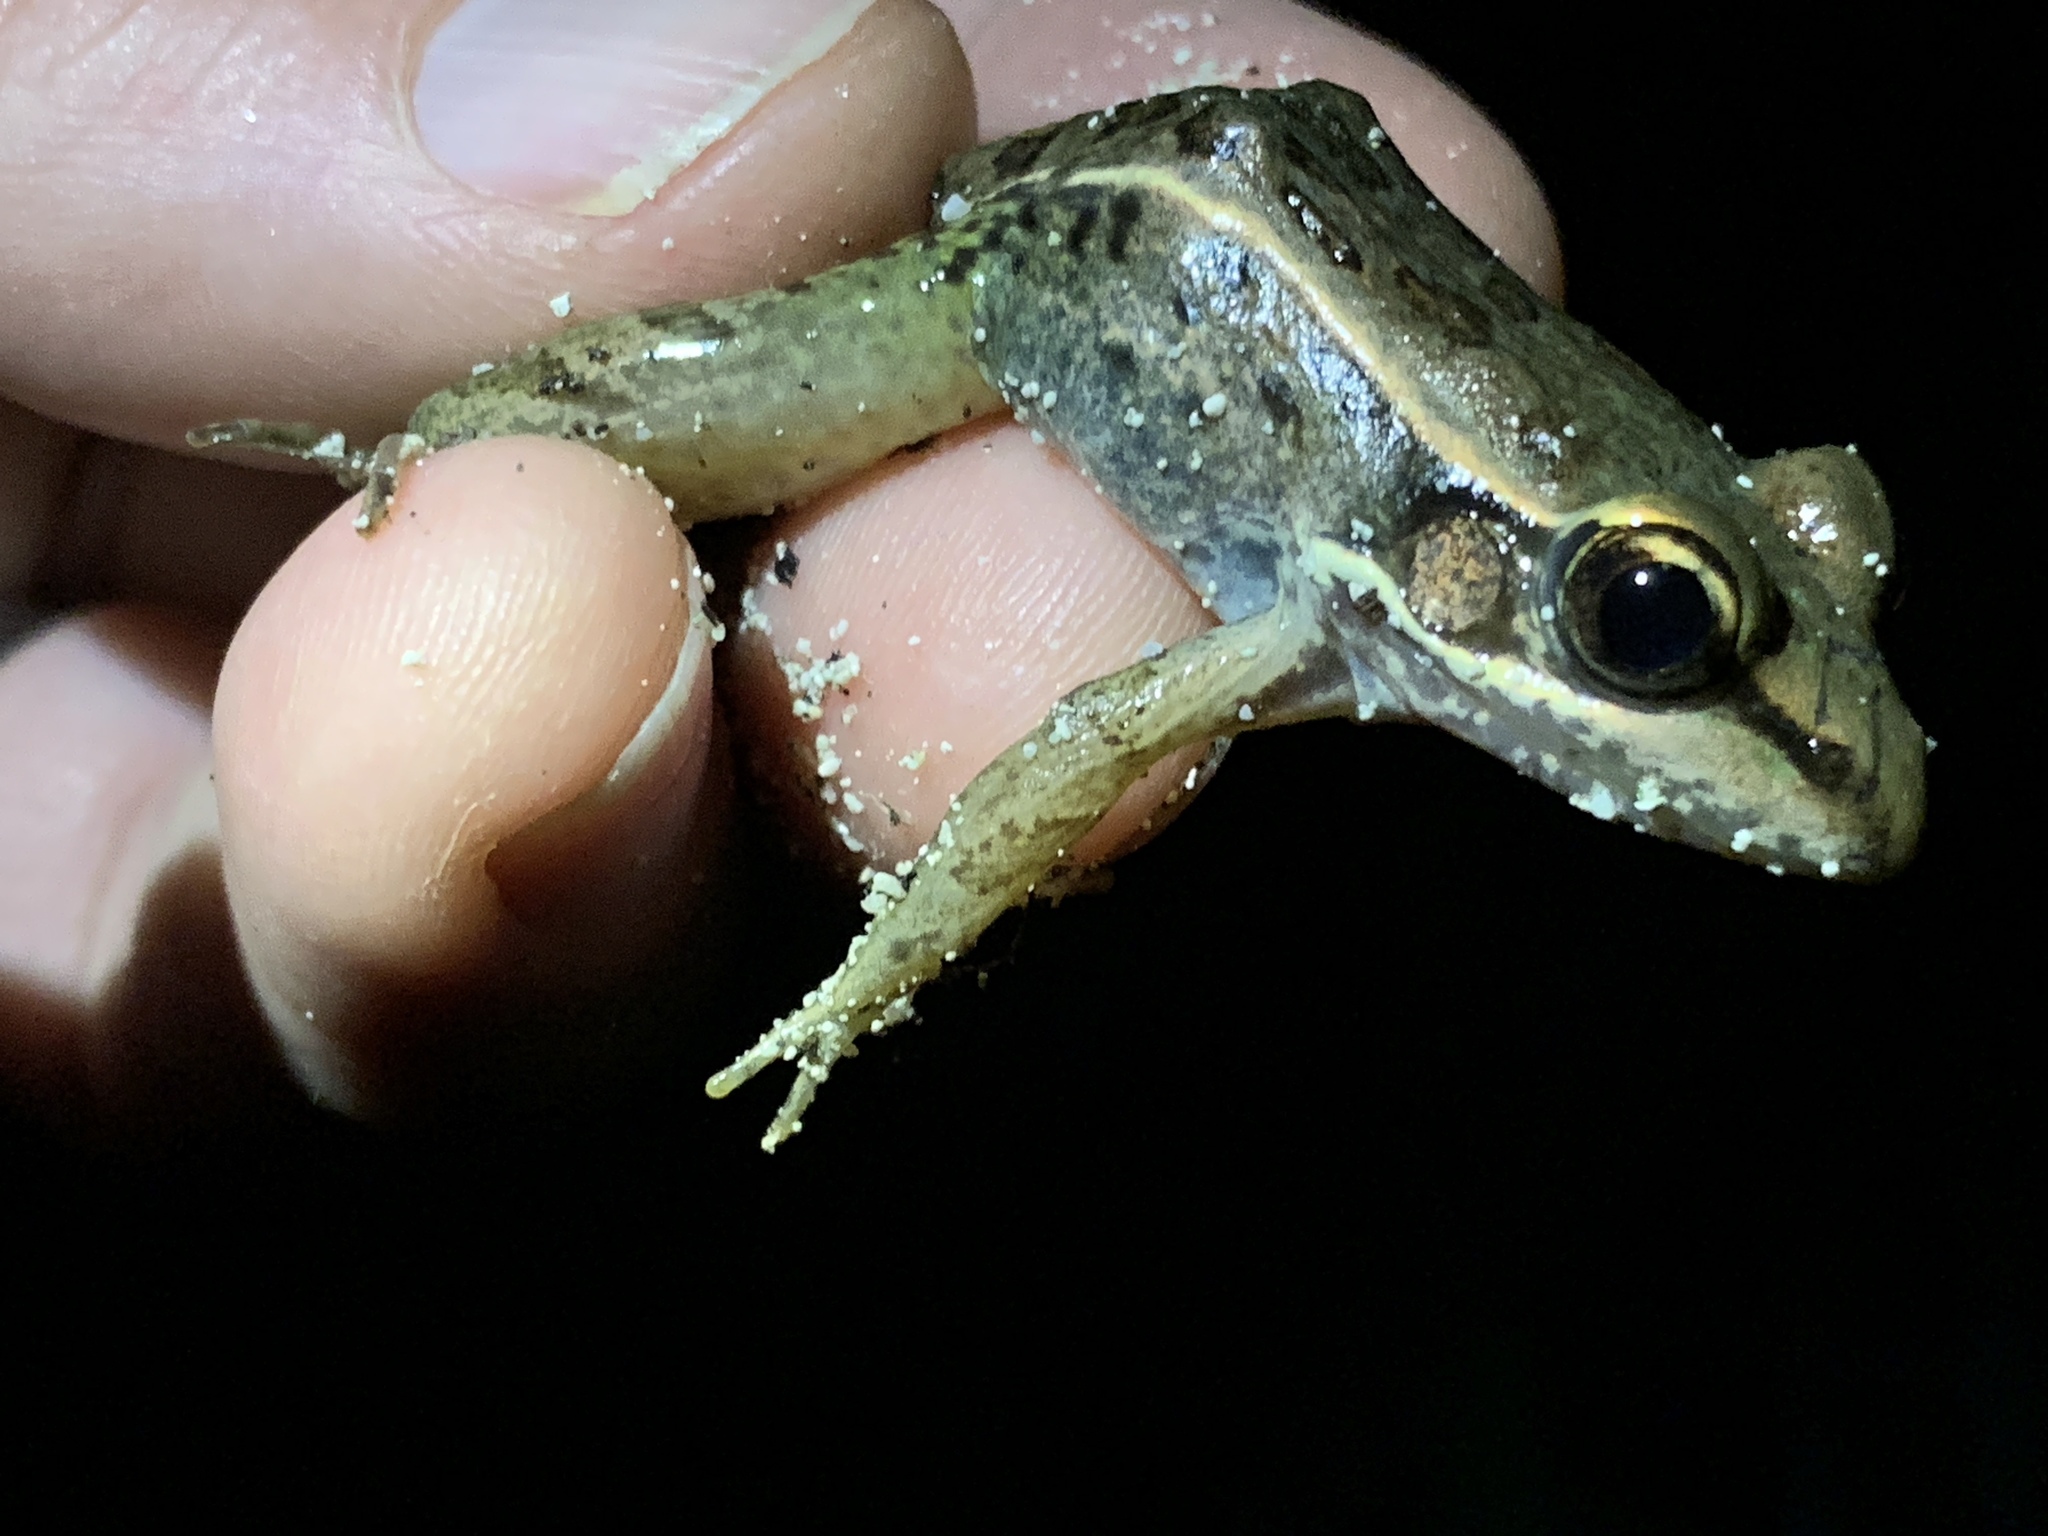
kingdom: Animalia
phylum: Chordata
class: Amphibia
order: Anura
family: Ranidae
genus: Lithobates
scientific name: Lithobates brownorum
